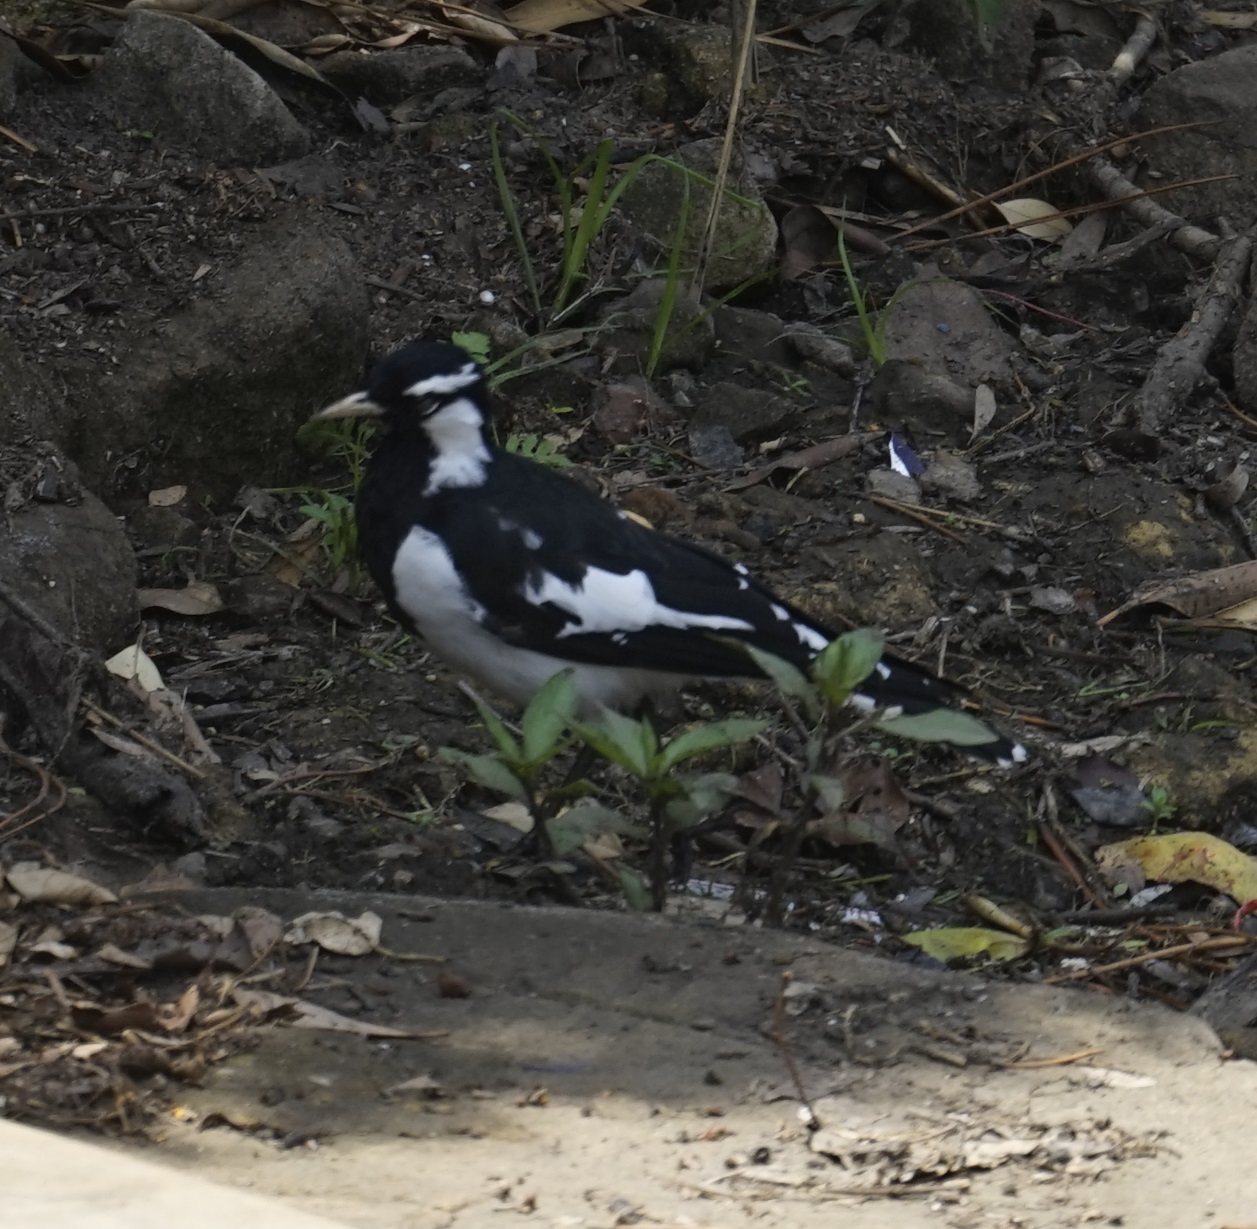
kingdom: Animalia
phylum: Chordata
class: Aves
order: Passeriformes
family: Monarchidae
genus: Grallina
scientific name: Grallina cyanoleuca
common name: Magpie-lark
